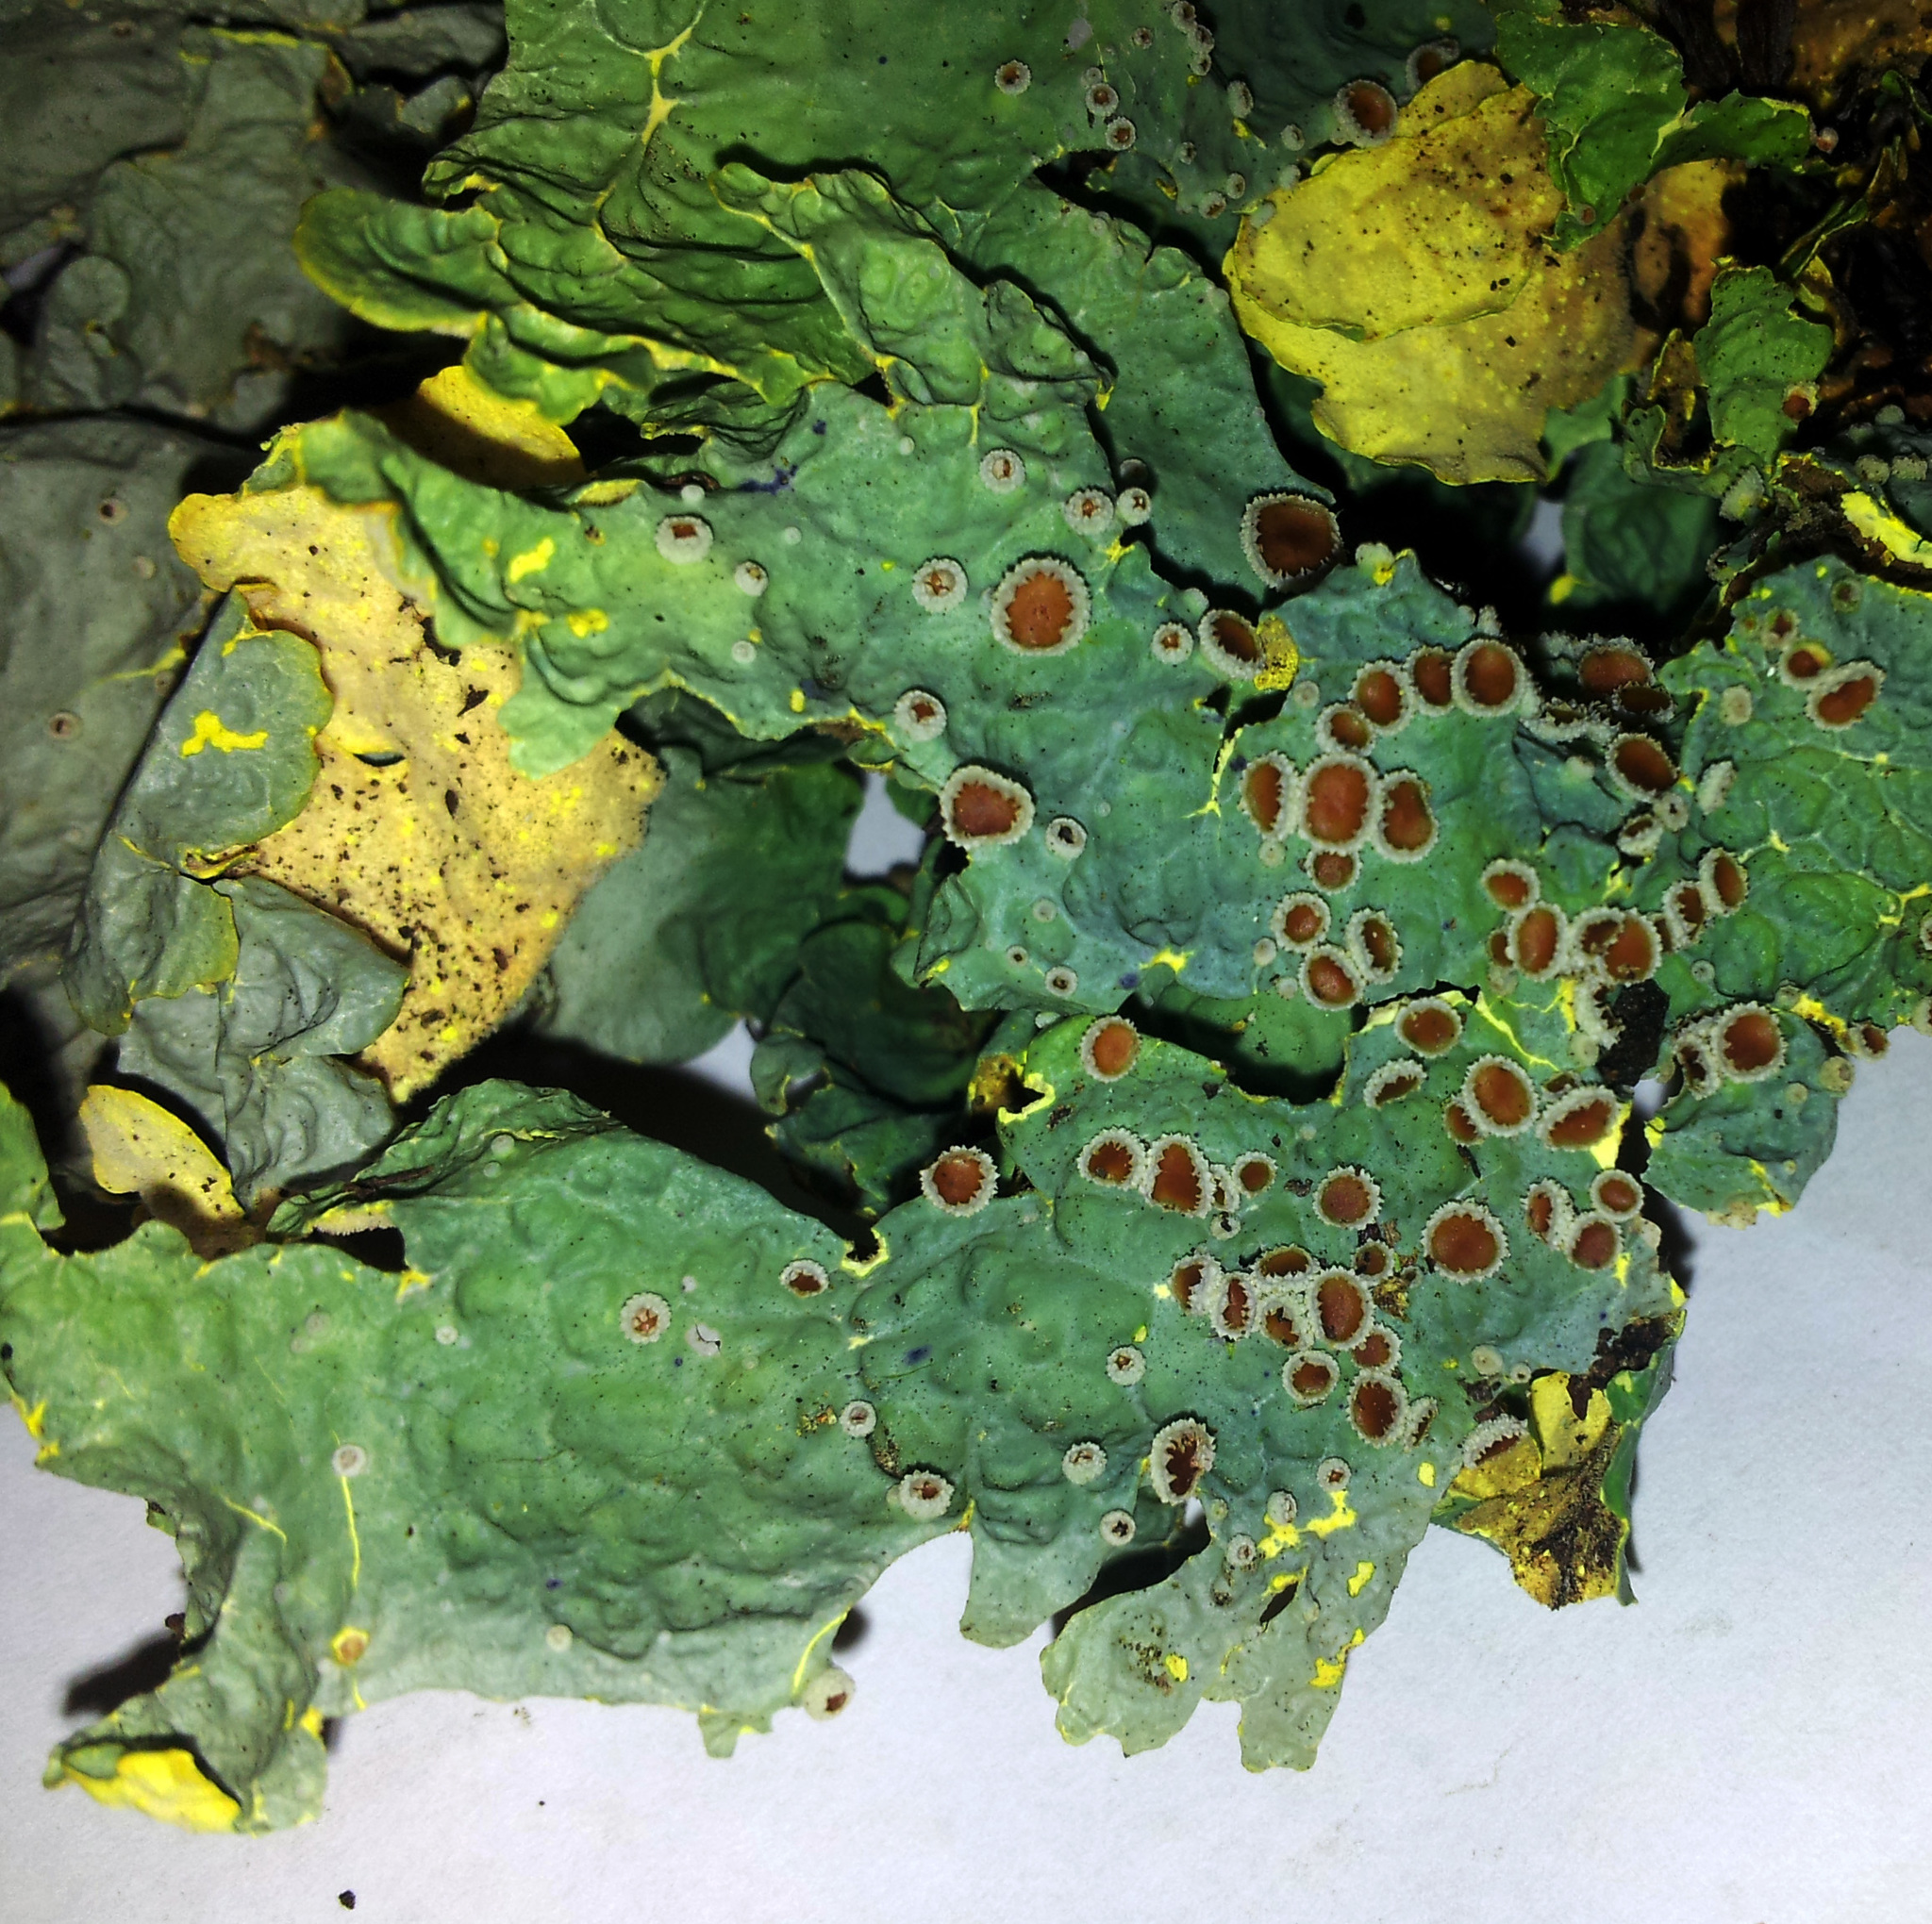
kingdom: Fungi
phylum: Ascomycota
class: Lecanoromycetes
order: Peltigerales
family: Lobariaceae
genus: Podostictina
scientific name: Podostictina degelii
